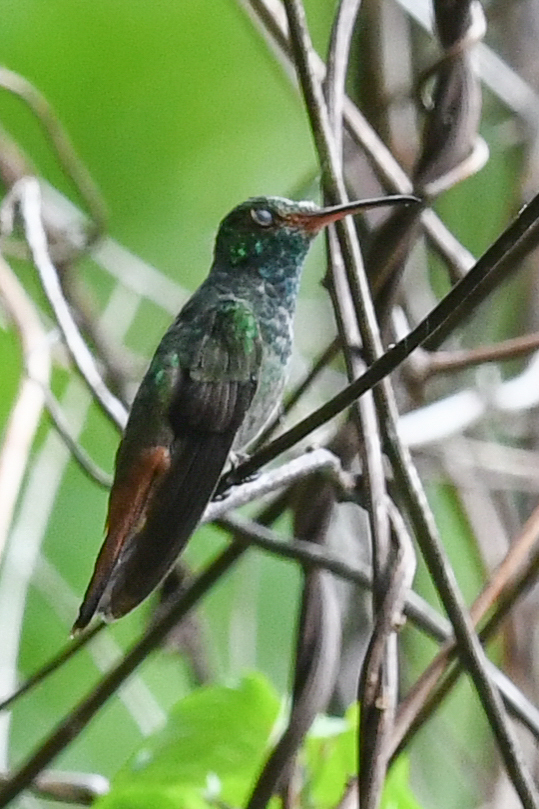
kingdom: Animalia
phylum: Chordata
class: Aves
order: Apodiformes
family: Trochilidae
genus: Amazilia
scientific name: Amazilia tzacatl
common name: Rufous-tailed hummingbird
